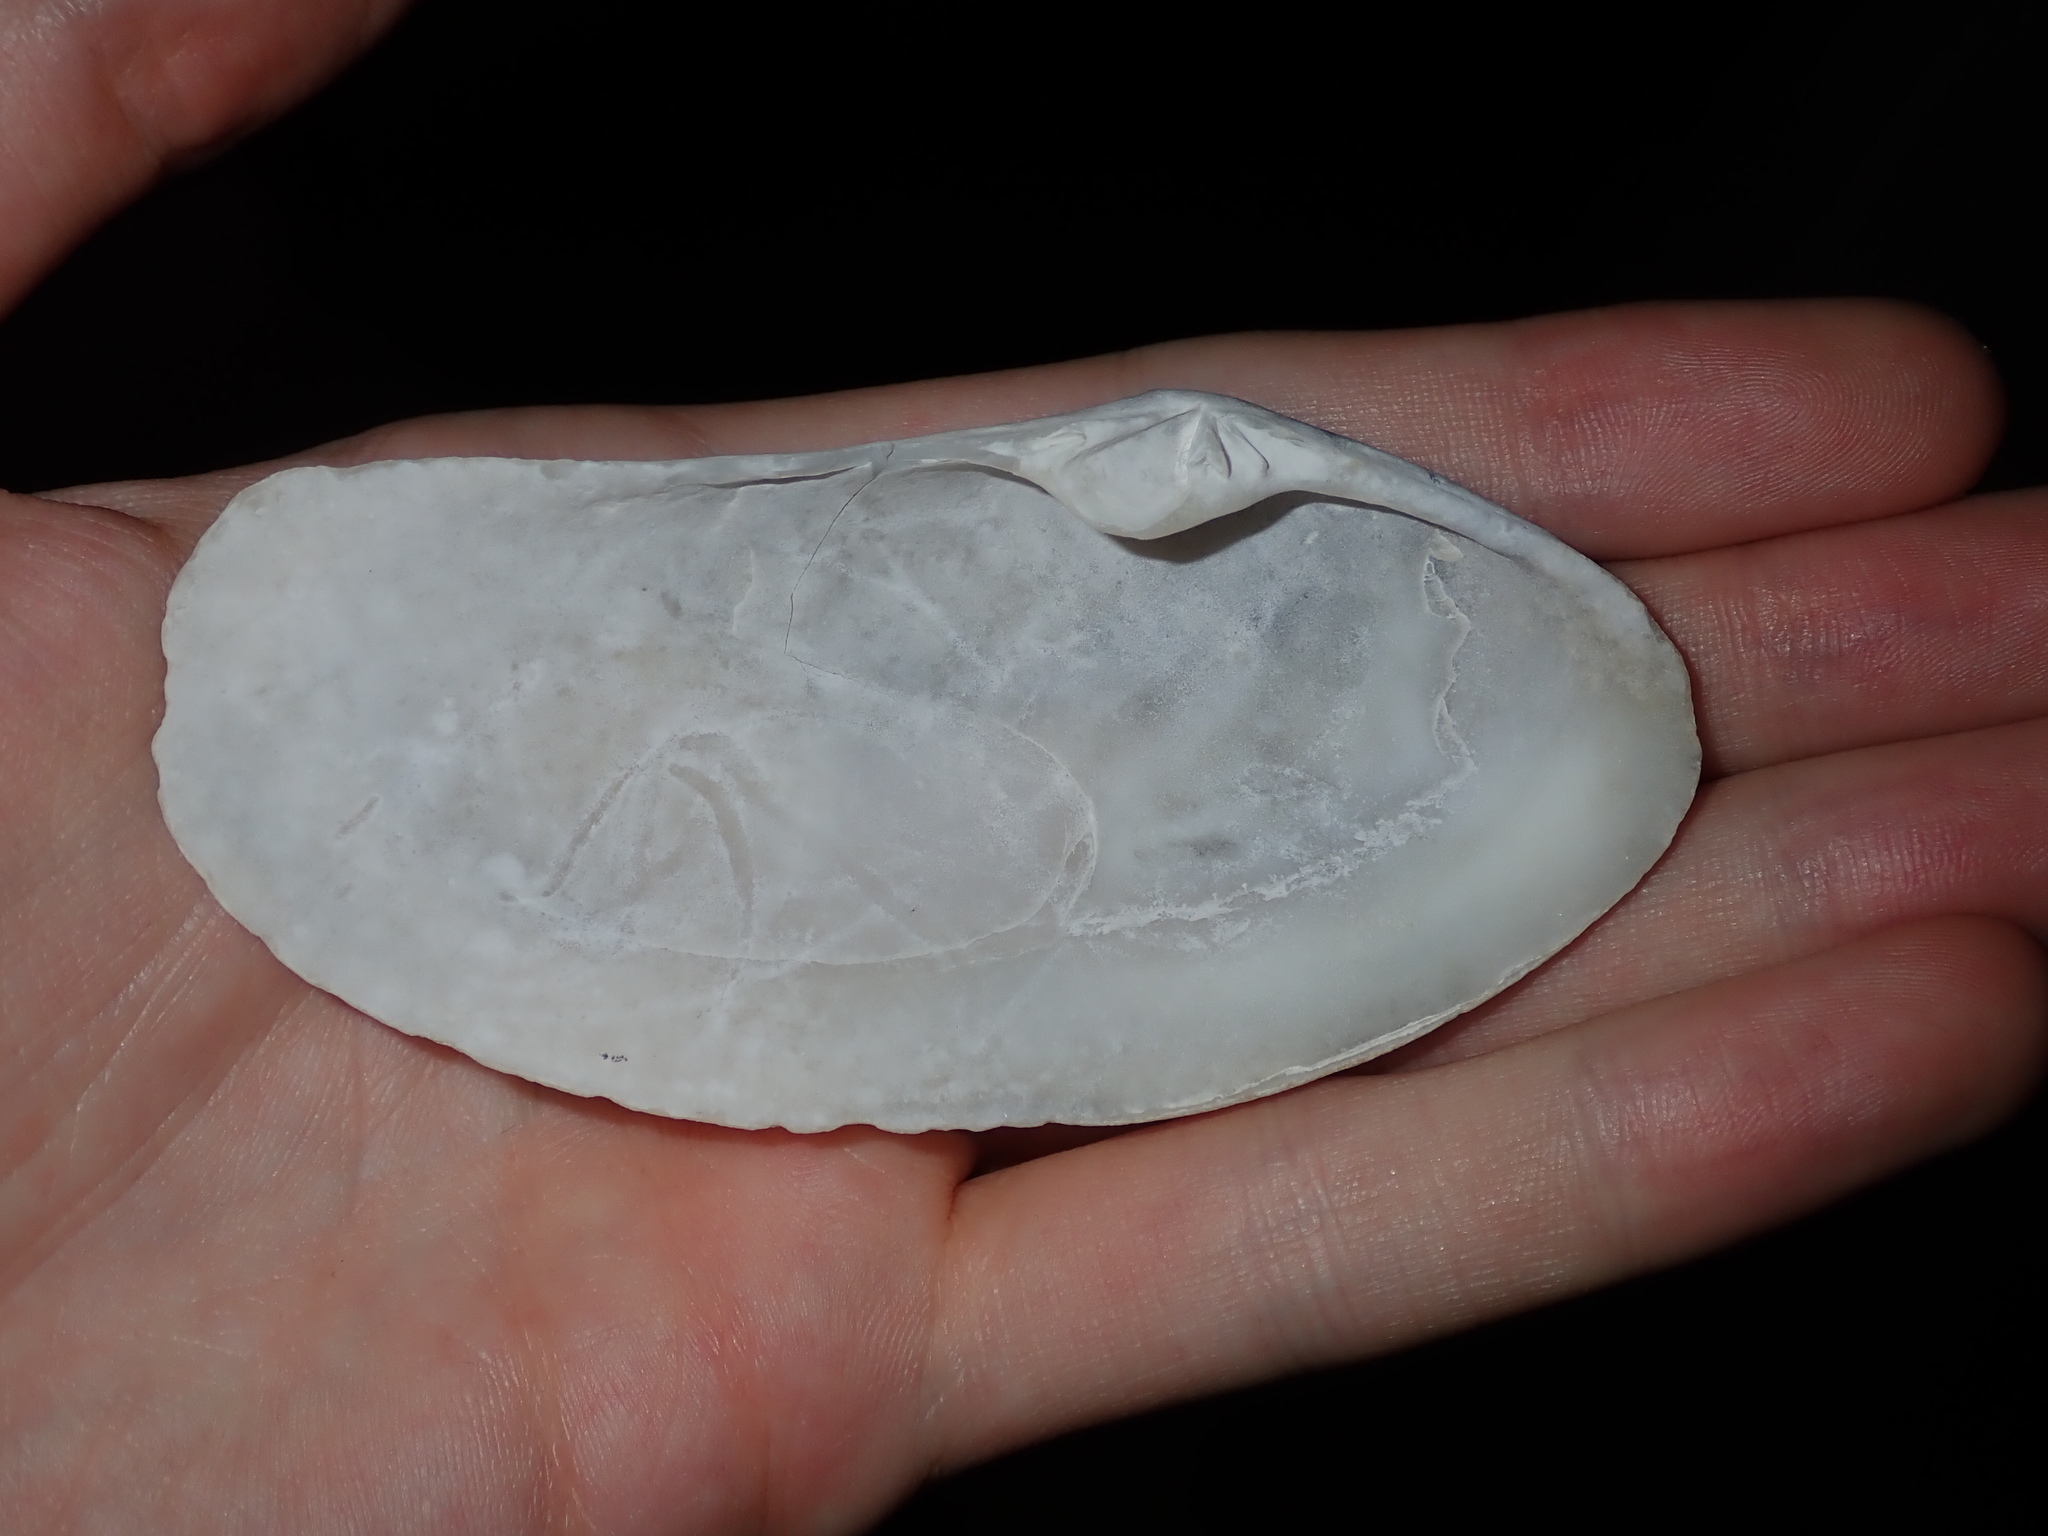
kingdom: Animalia
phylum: Mollusca
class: Bivalvia
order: Venerida
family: Mactridae
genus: Lutraria
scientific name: Lutraria rhynchaena
